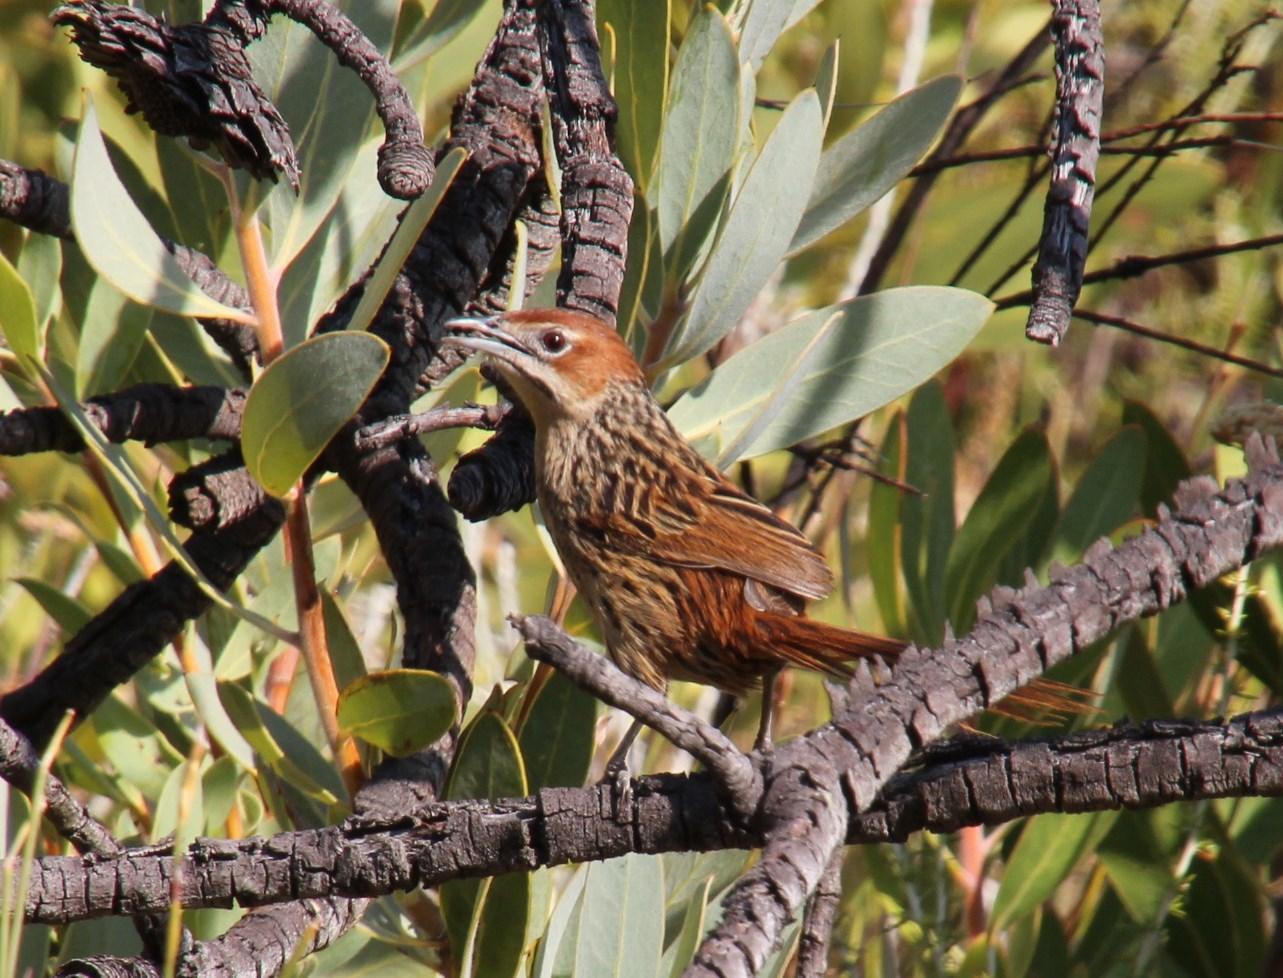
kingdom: Animalia
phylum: Chordata
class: Aves
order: Passeriformes
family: Macrosphenidae
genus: Sphenoeacus
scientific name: Sphenoeacus afer
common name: Cape grassbird
